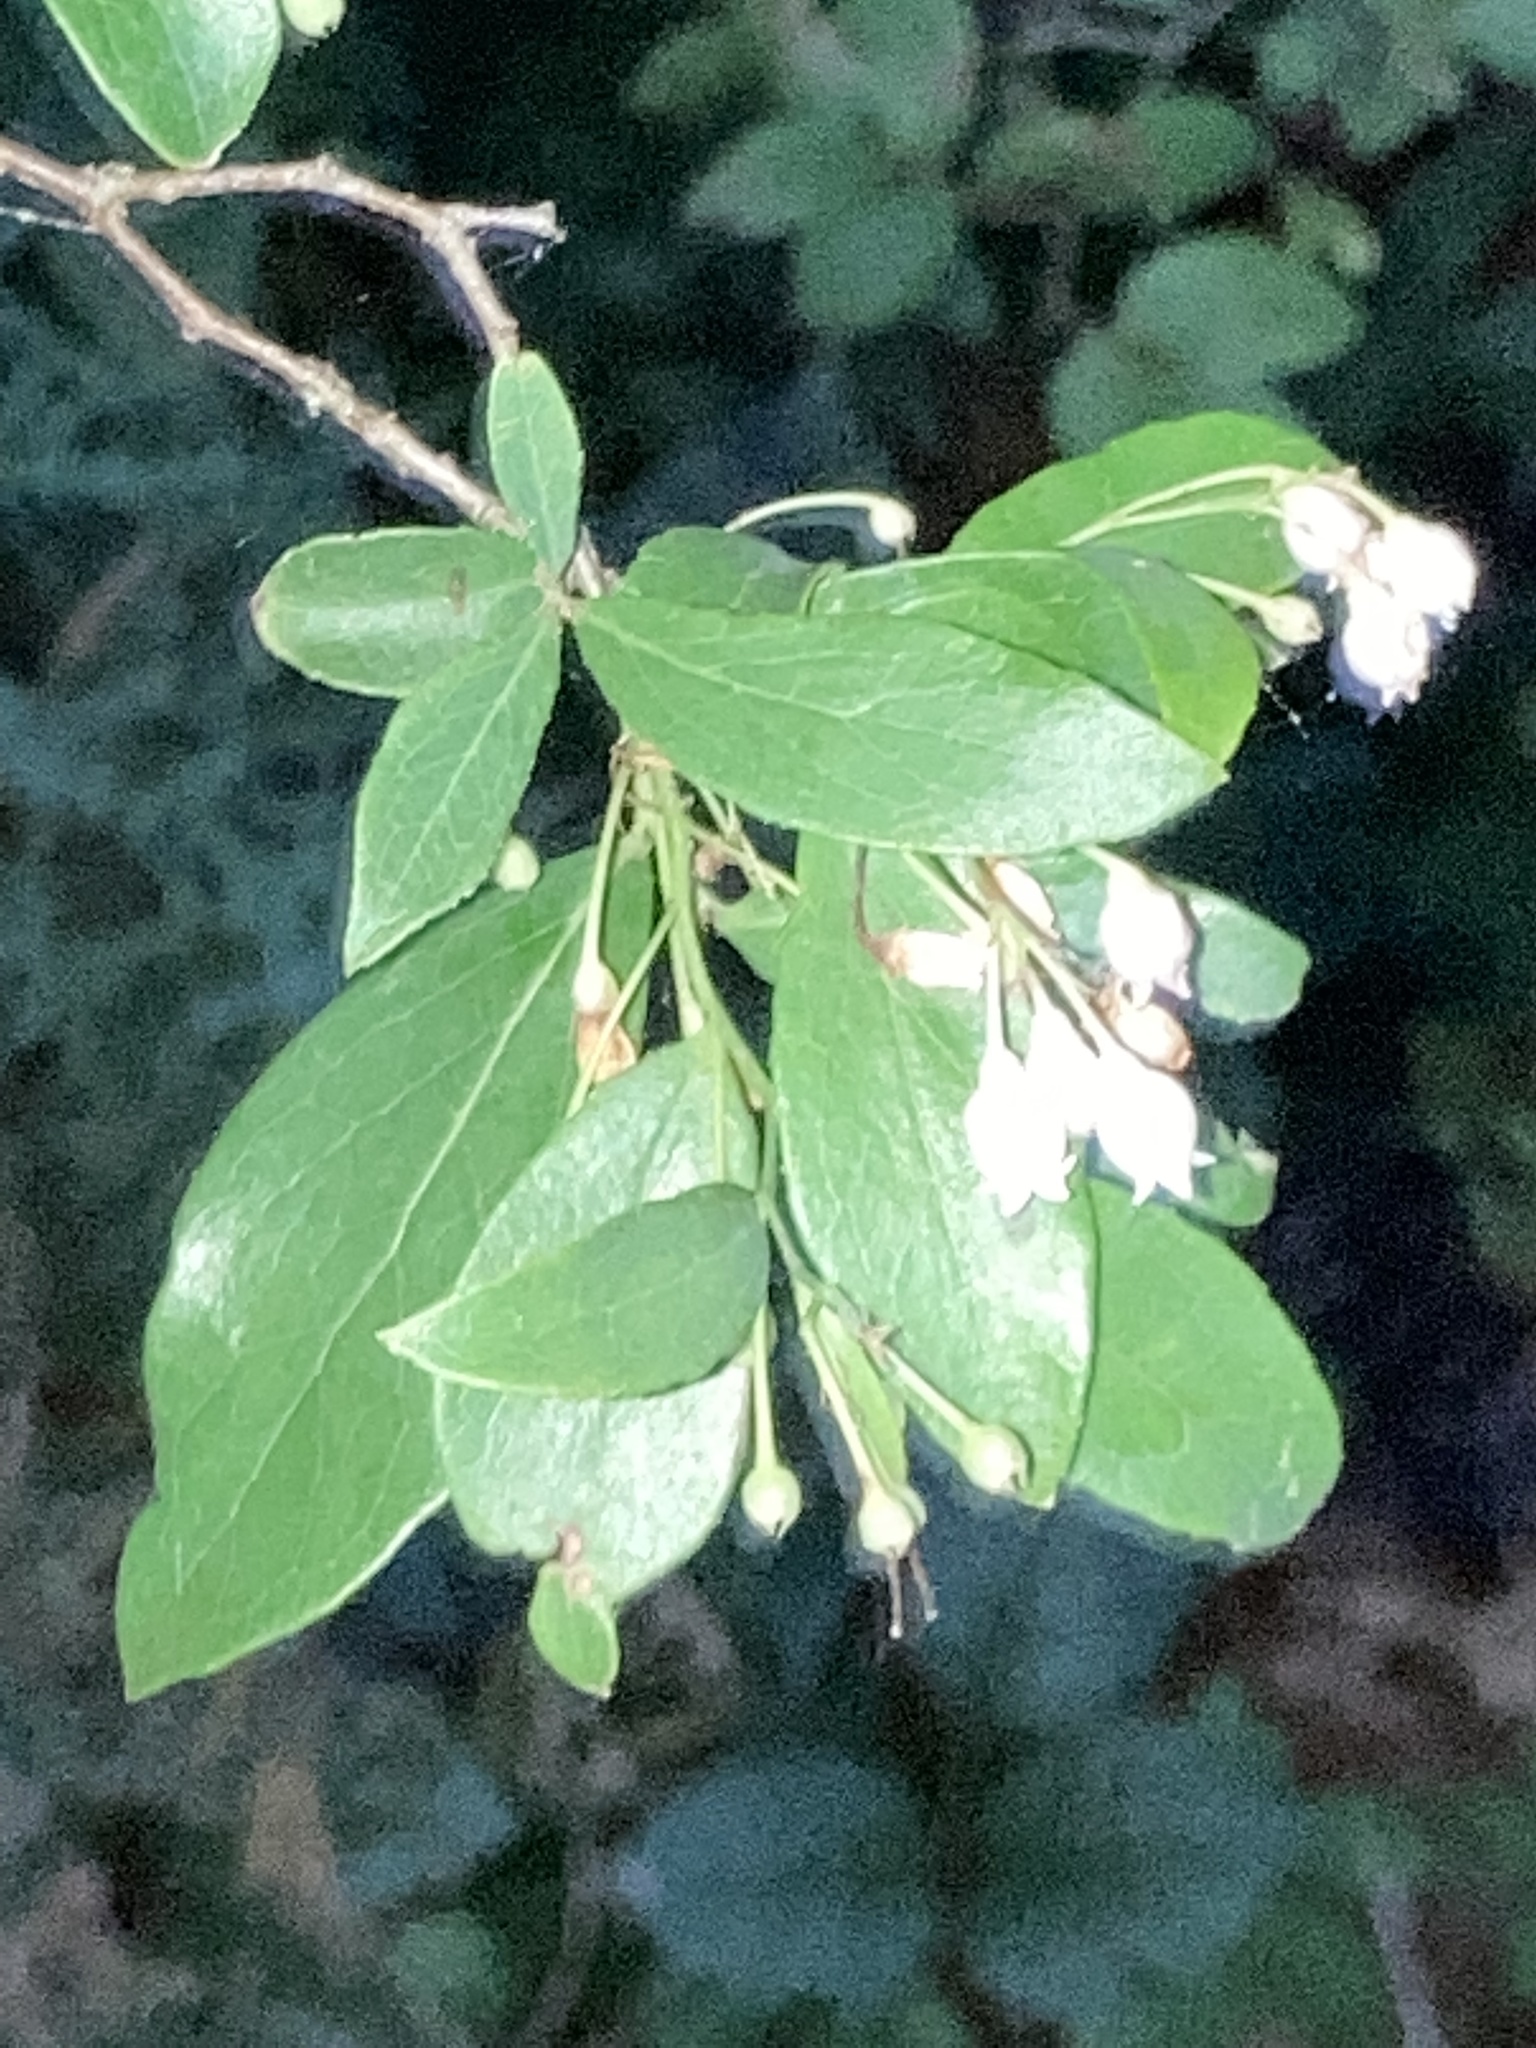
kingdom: Plantae
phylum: Tracheophyta
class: Magnoliopsida
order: Ericales
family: Ericaceae
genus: Vaccinium
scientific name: Vaccinium arboreum
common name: Farkleberry
